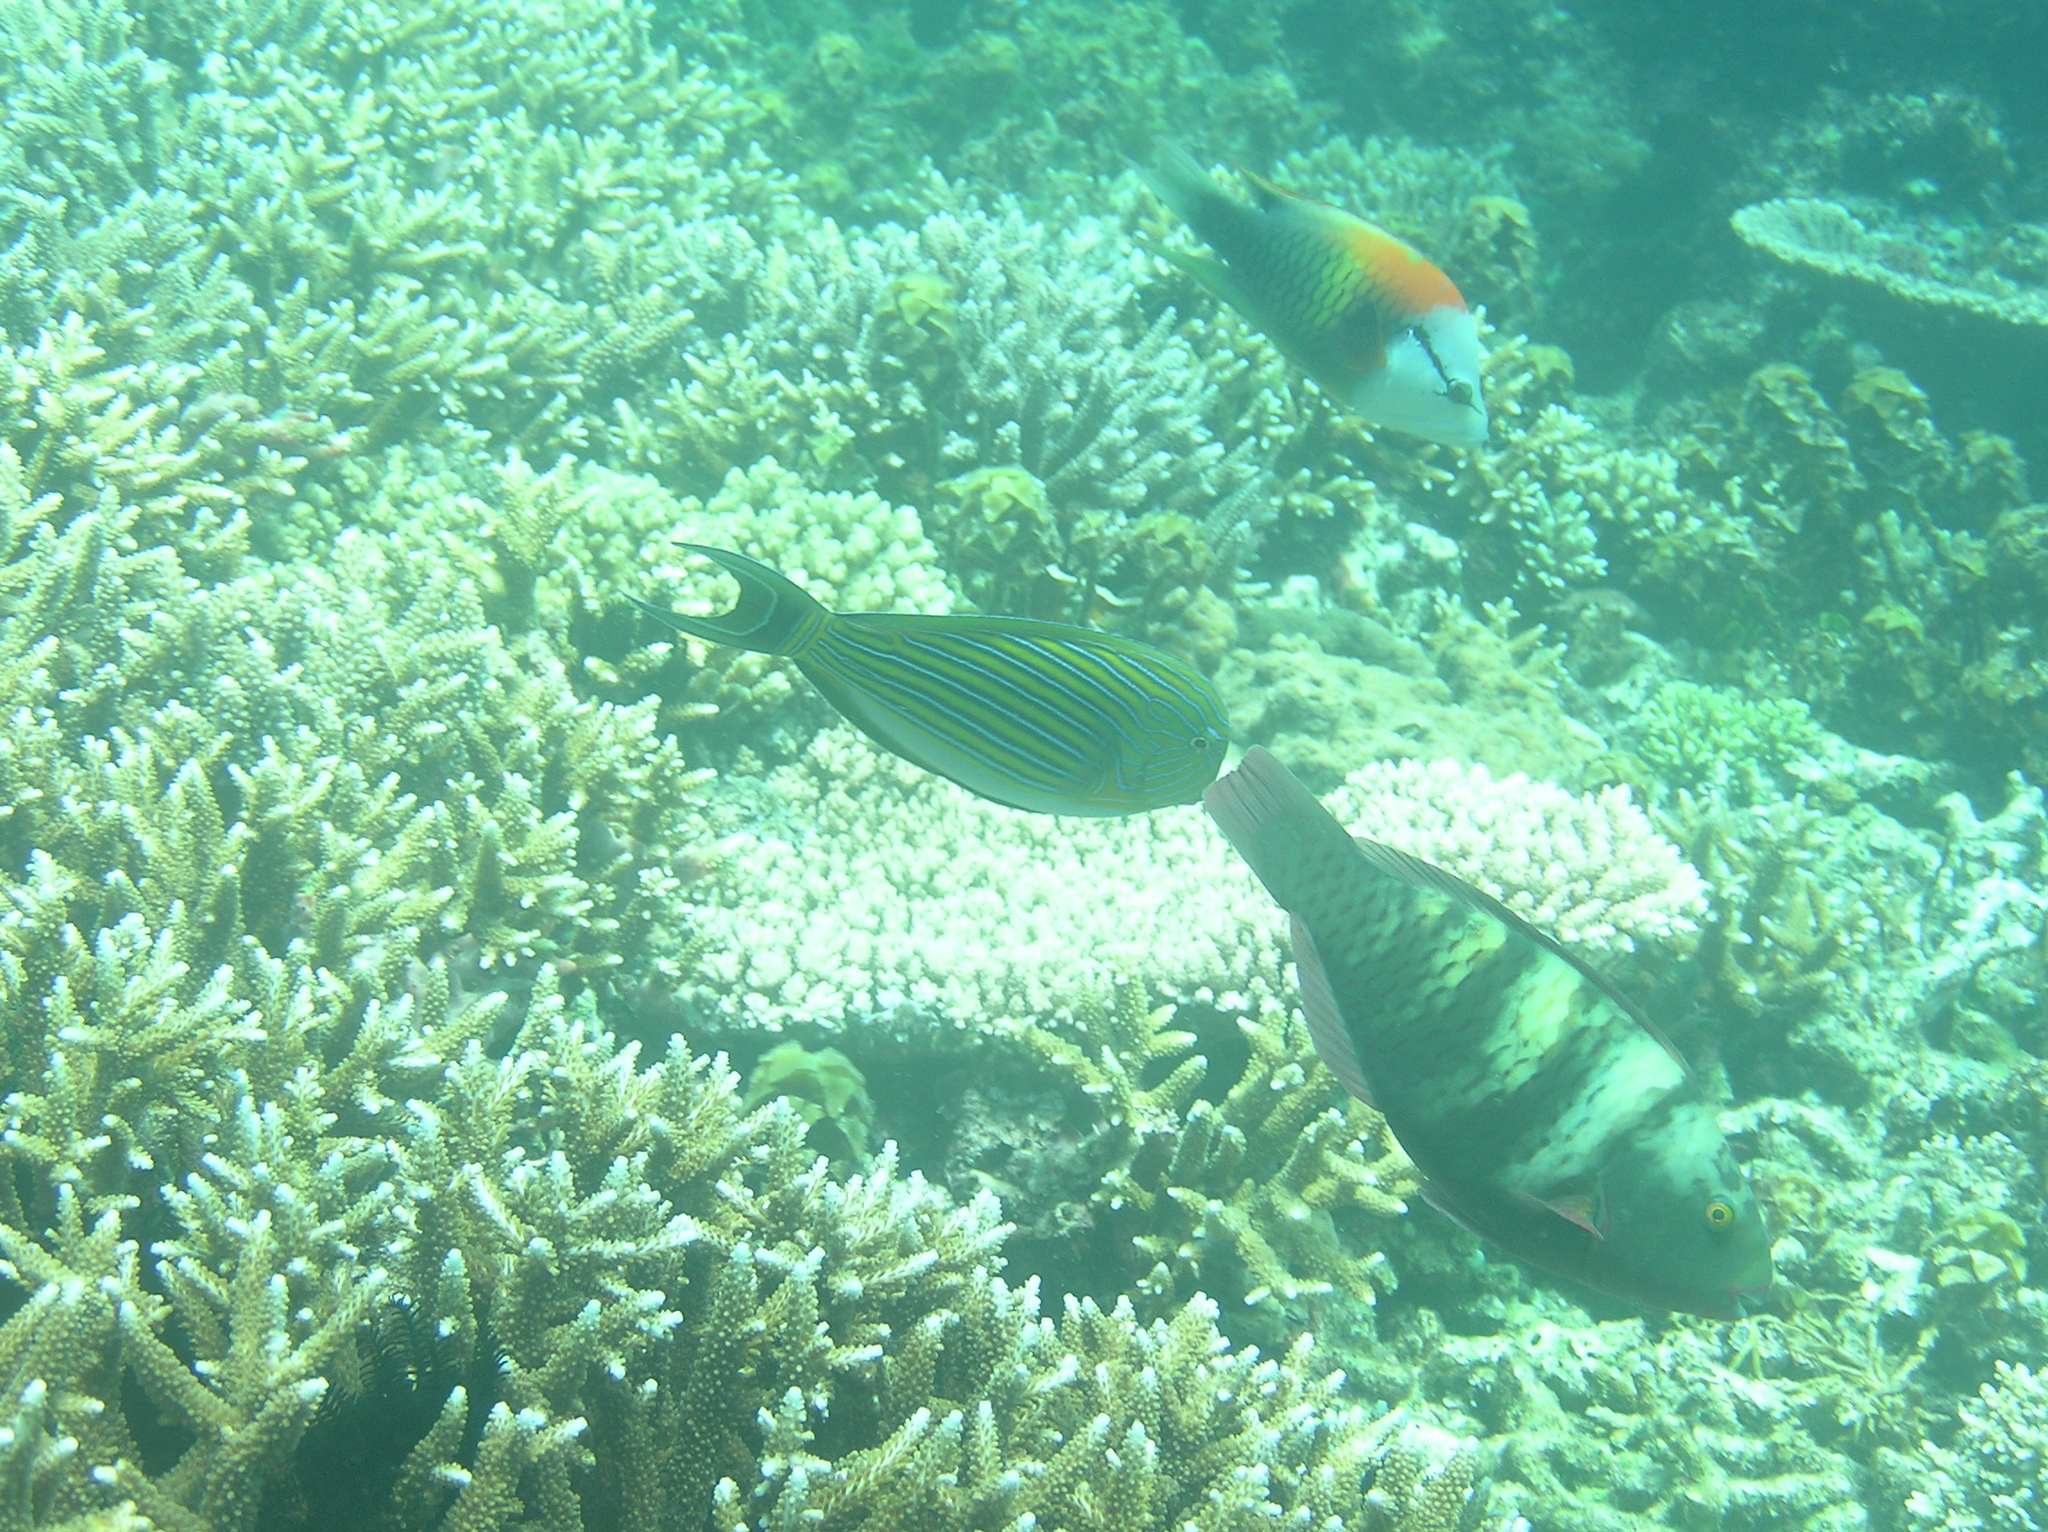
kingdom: Animalia
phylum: Chordata
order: Perciformes
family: Labridae
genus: Epibulus
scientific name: Epibulus insidiator
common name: Slingjaw wrasse
